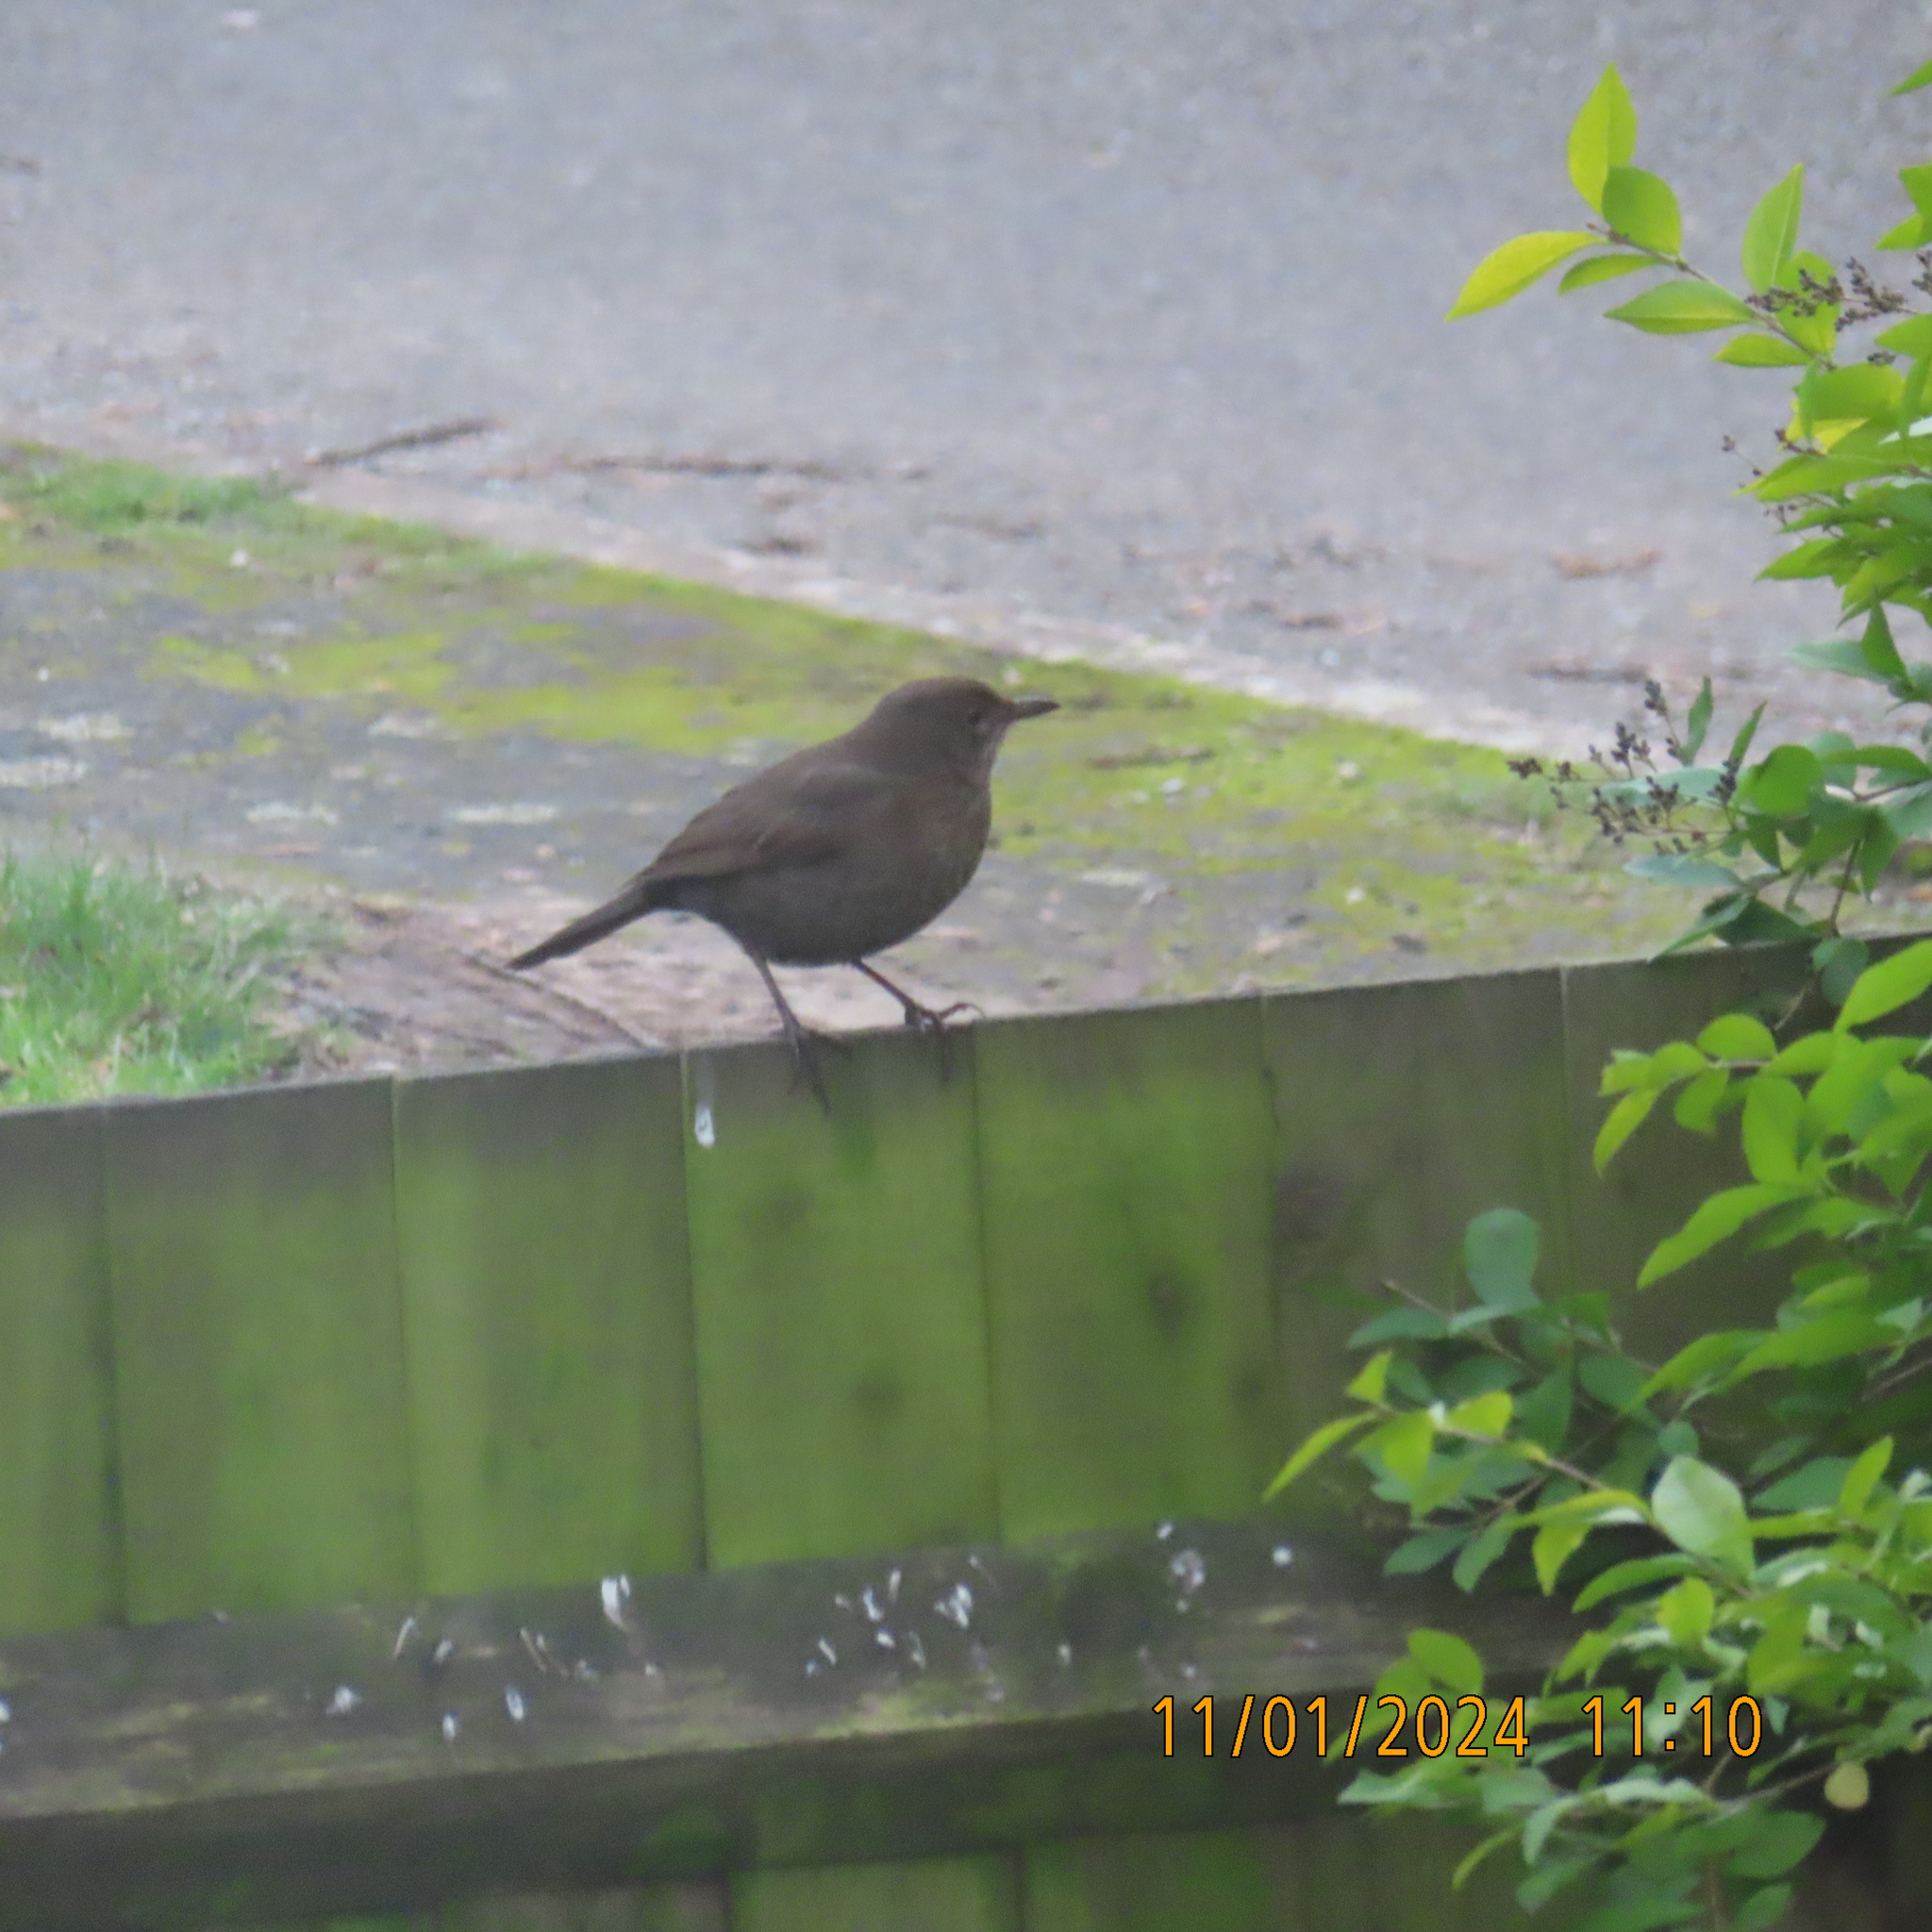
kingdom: Animalia
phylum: Chordata
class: Aves
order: Passeriformes
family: Turdidae
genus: Turdus
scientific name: Turdus merula
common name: Common blackbird
